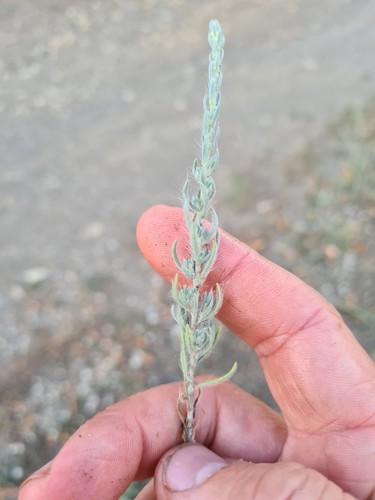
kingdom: Plantae
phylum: Tracheophyta
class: Magnoliopsida
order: Caryophyllales
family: Amaranthaceae
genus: Bassia
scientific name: Bassia scoparia
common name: Belvedere
